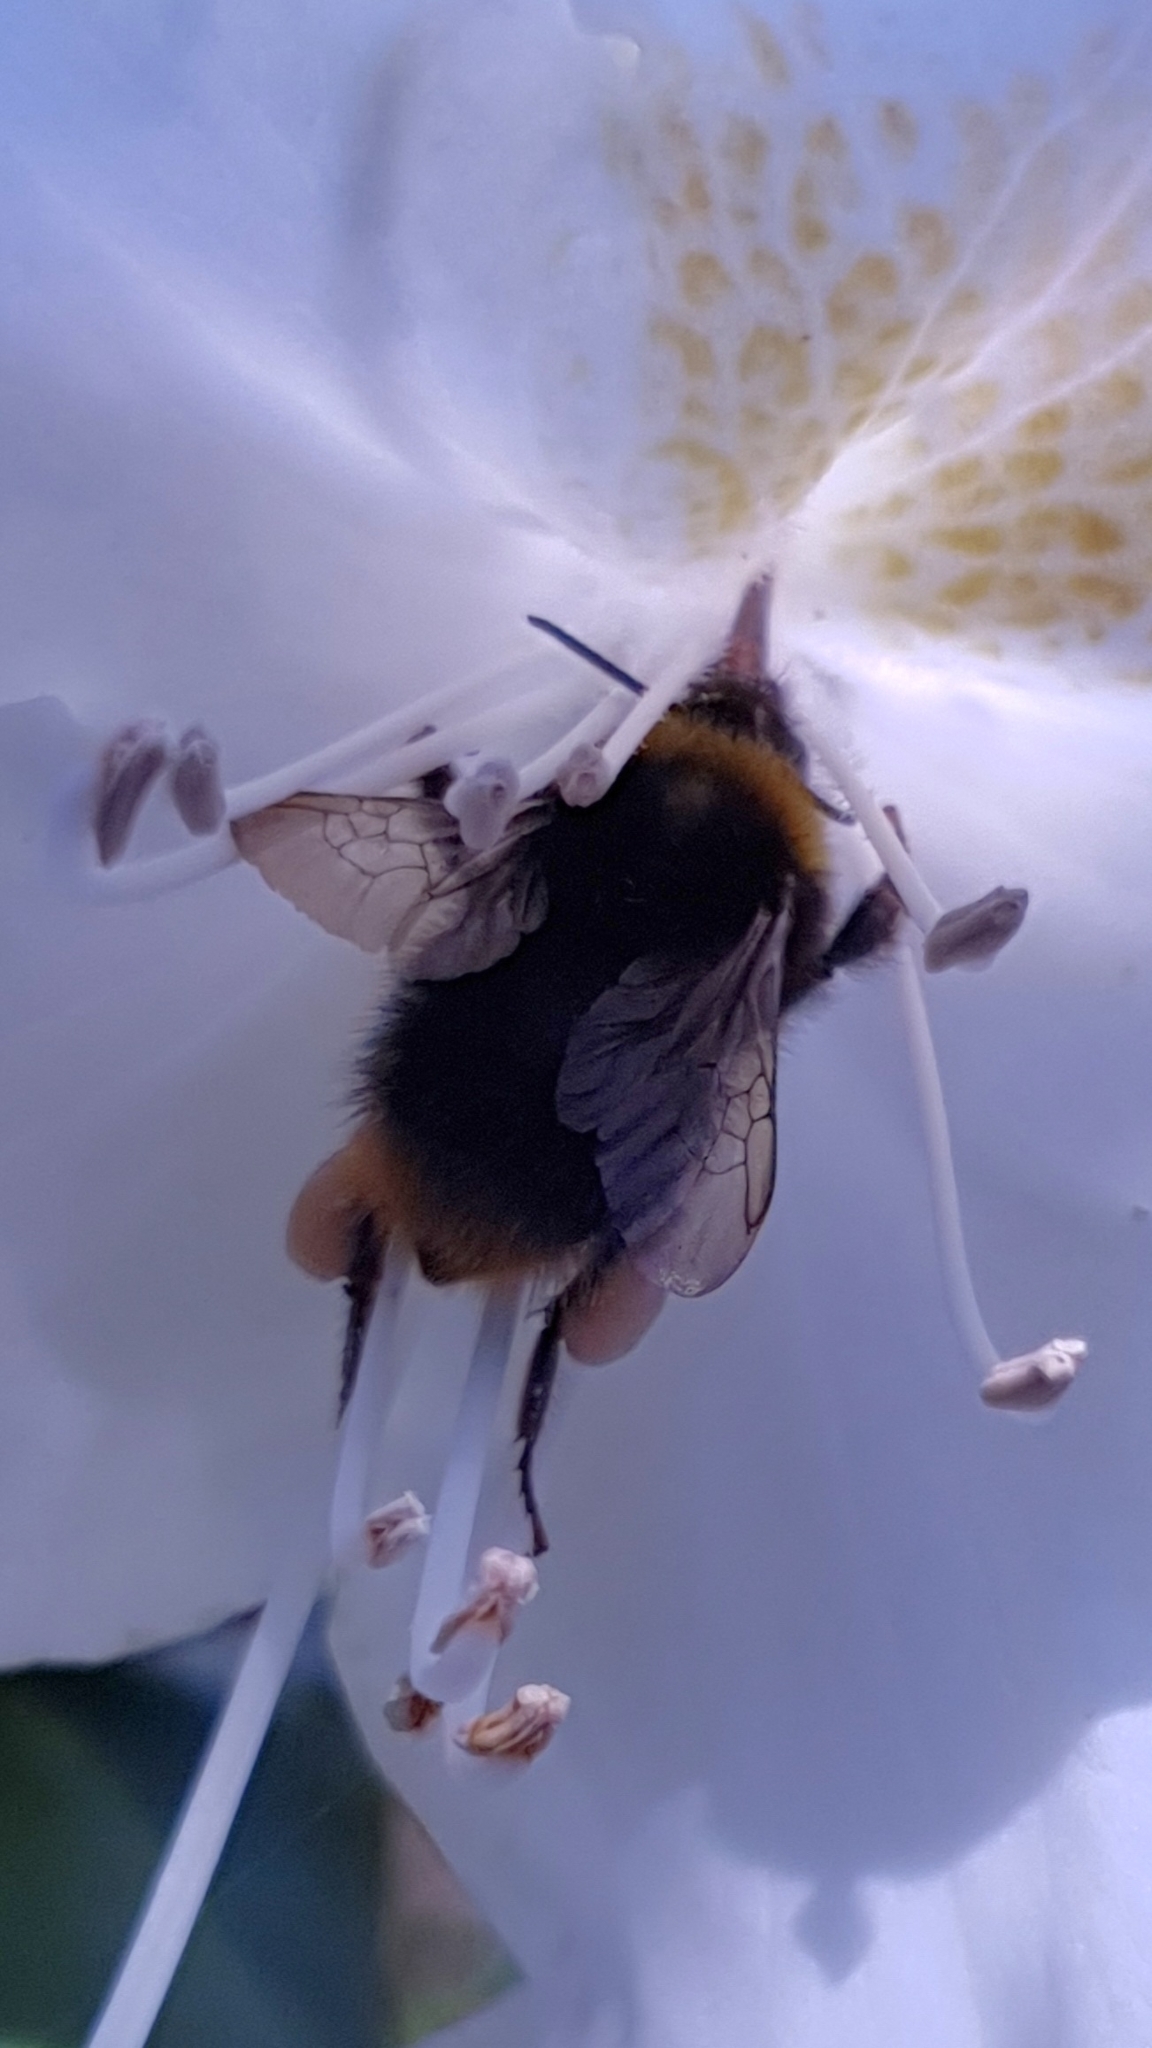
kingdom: Animalia
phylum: Arthropoda
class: Insecta
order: Hymenoptera
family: Apidae
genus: Bombus
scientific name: Bombus pratorum
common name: Early humble-bee
